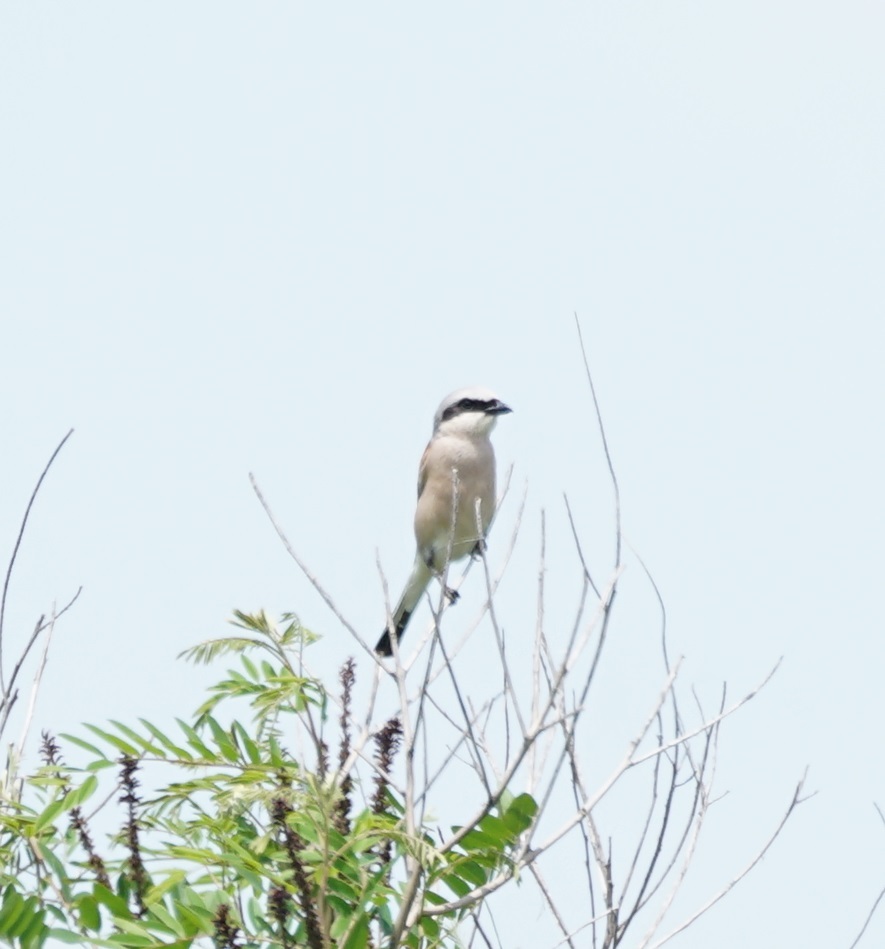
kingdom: Animalia
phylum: Chordata
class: Aves
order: Passeriformes
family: Laniidae
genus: Lanius
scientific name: Lanius collurio
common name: Red-backed shrike
